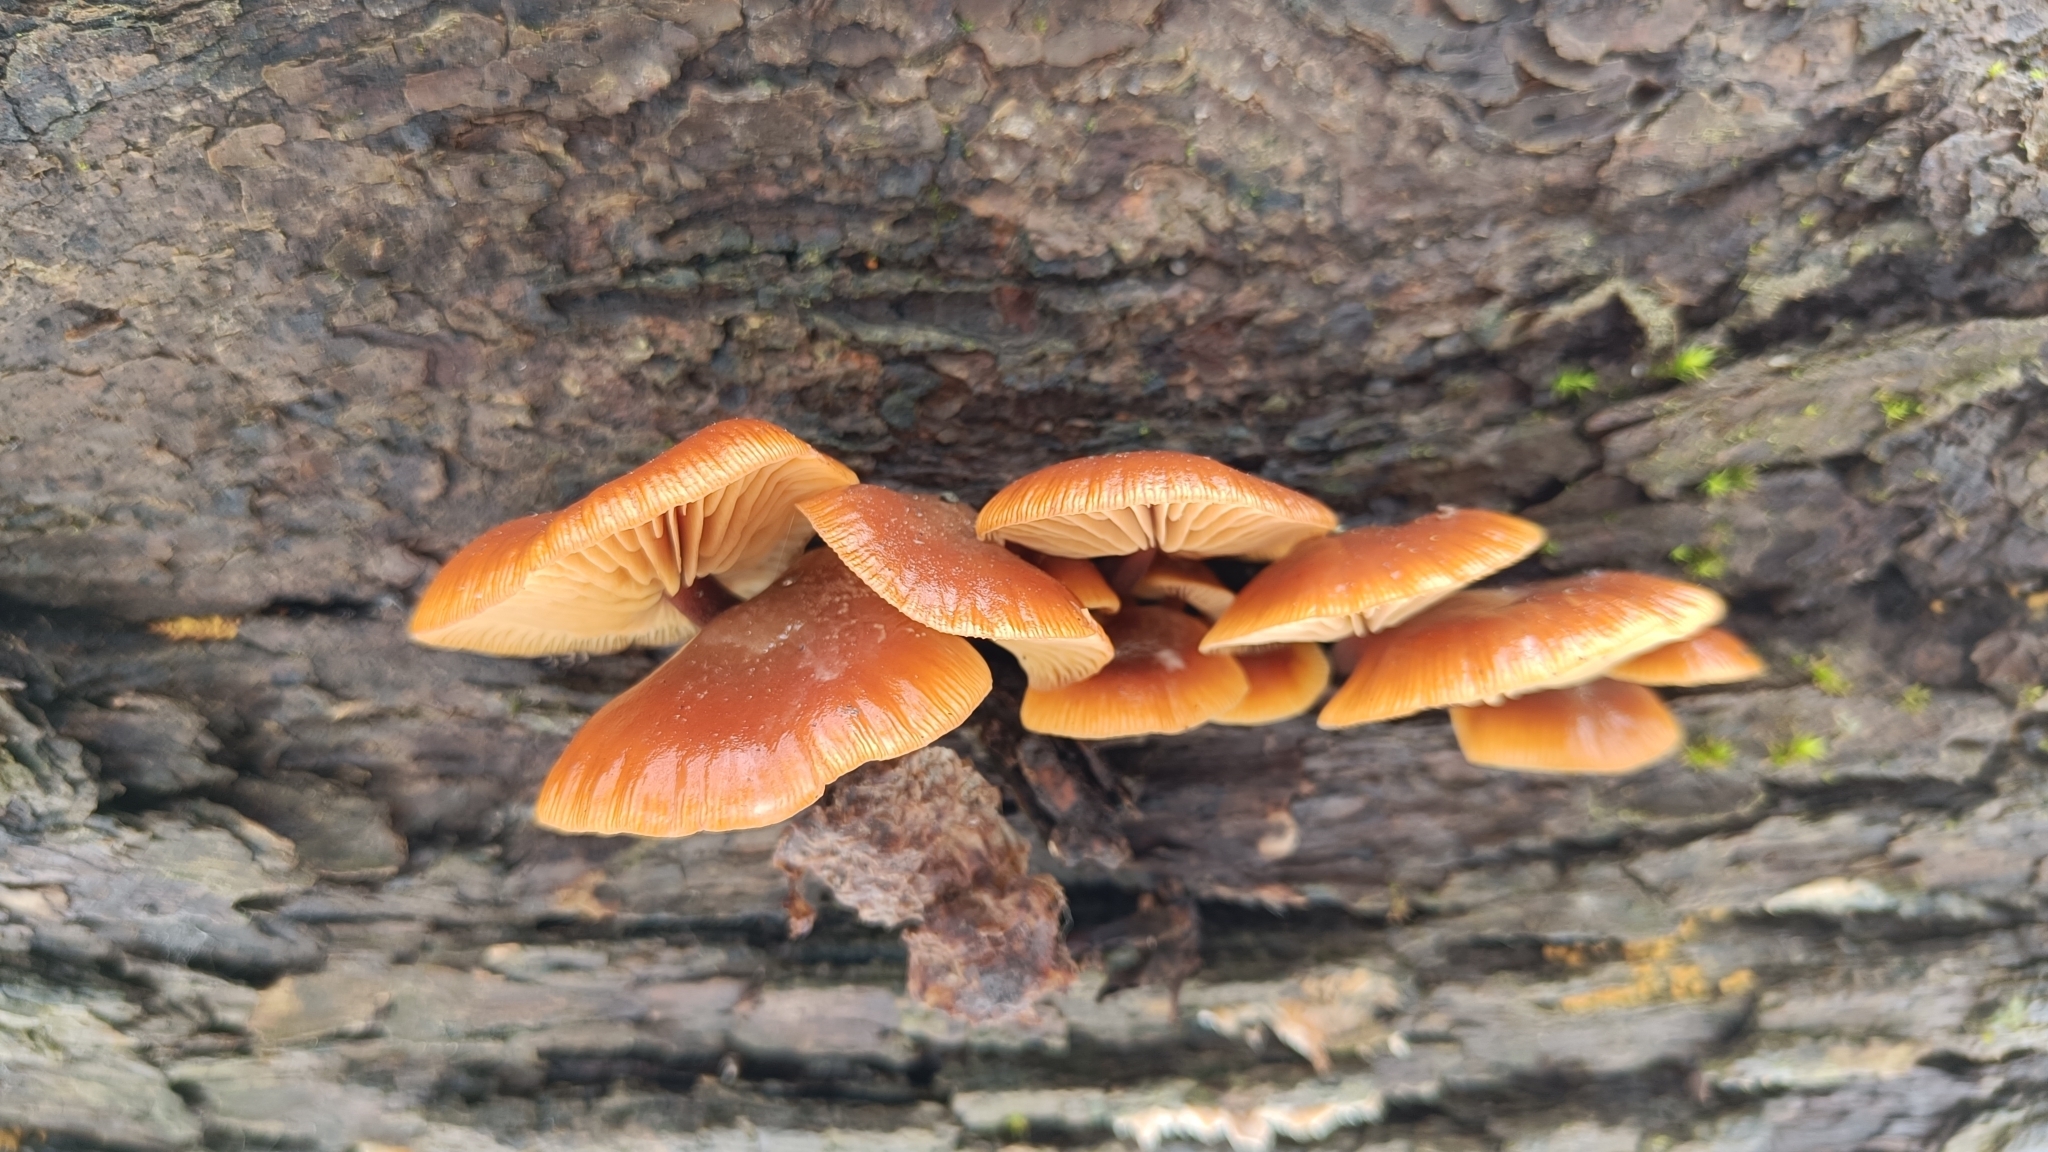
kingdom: Fungi
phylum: Basidiomycota
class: Agaricomycetes
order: Agaricales
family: Physalacriaceae
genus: Flammulina
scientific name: Flammulina
